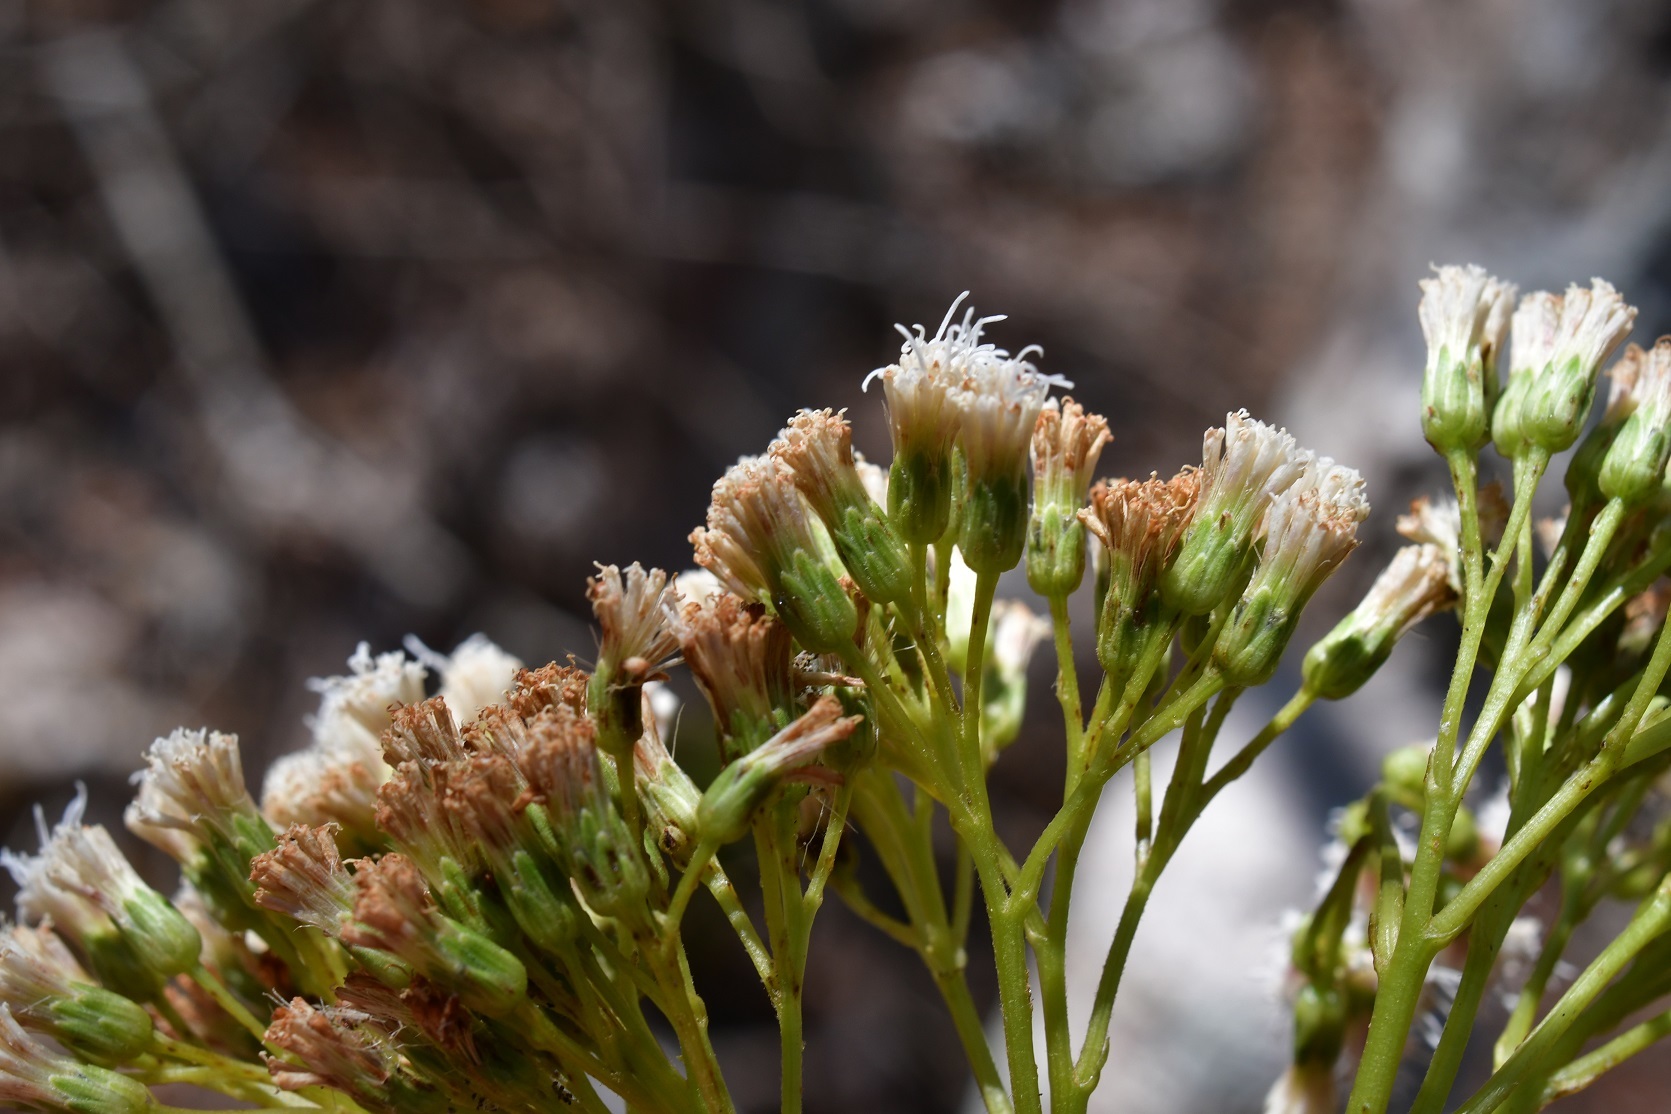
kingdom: Plantae
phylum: Tracheophyta
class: Magnoliopsida
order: Asterales
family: Asteraceae
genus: Ageratina
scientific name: Ageratina crassiramea
